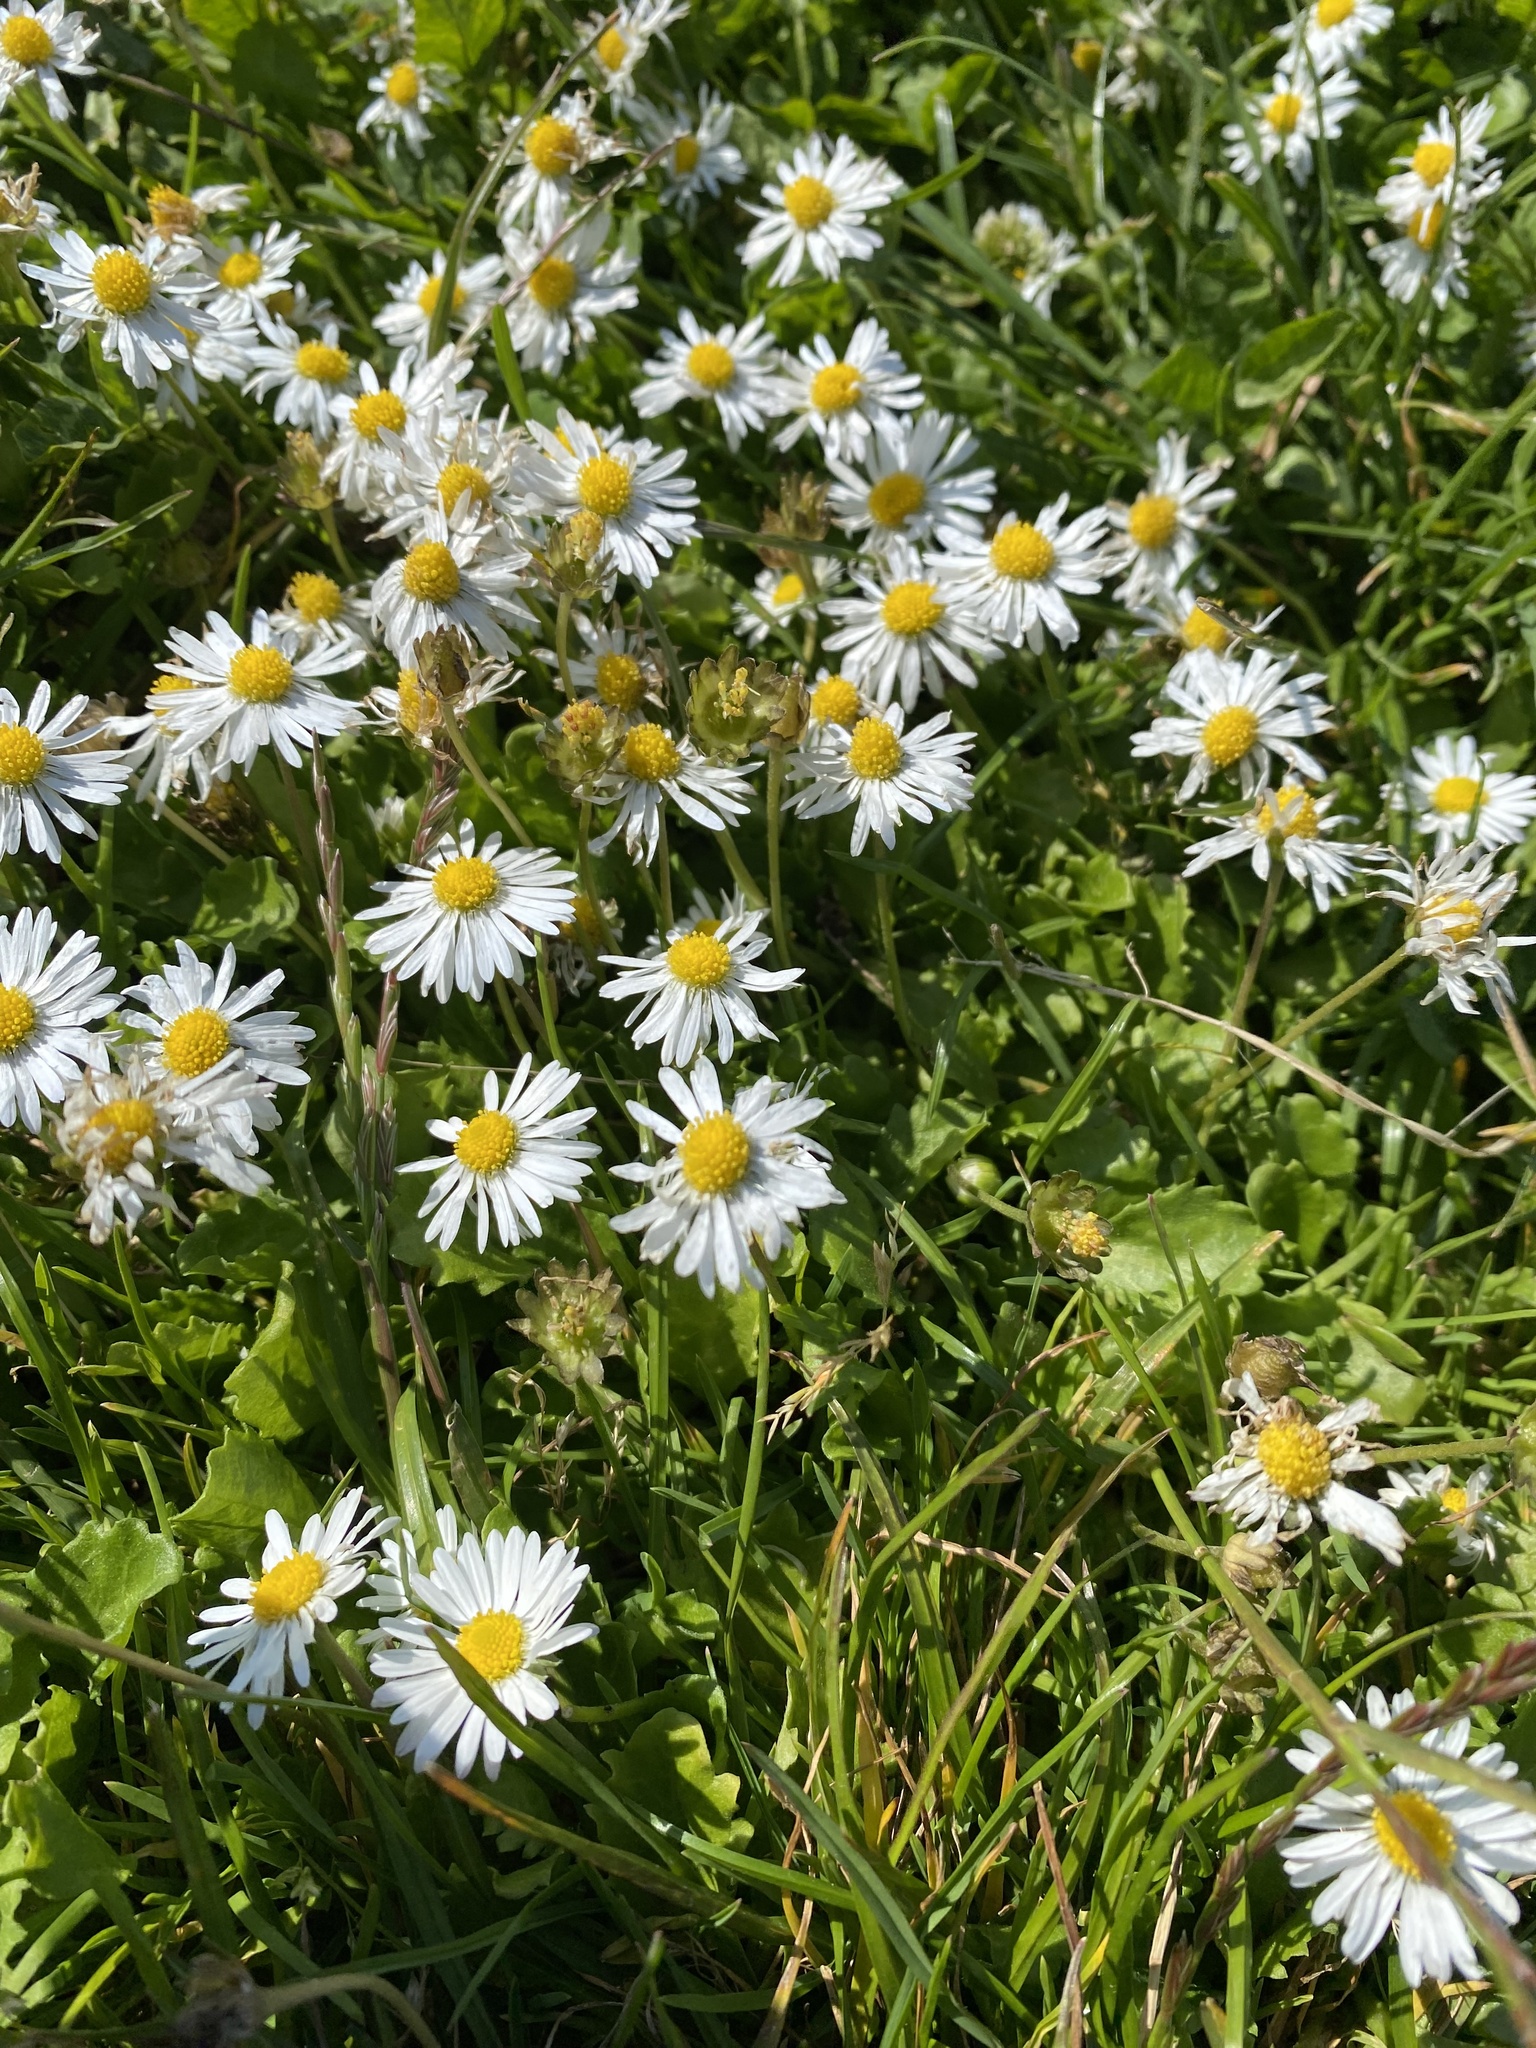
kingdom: Plantae
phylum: Tracheophyta
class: Magnoliopsida
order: Asterales
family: Asteraceae
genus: Bellis
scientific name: Bellis perennis
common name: Lawndaisy
